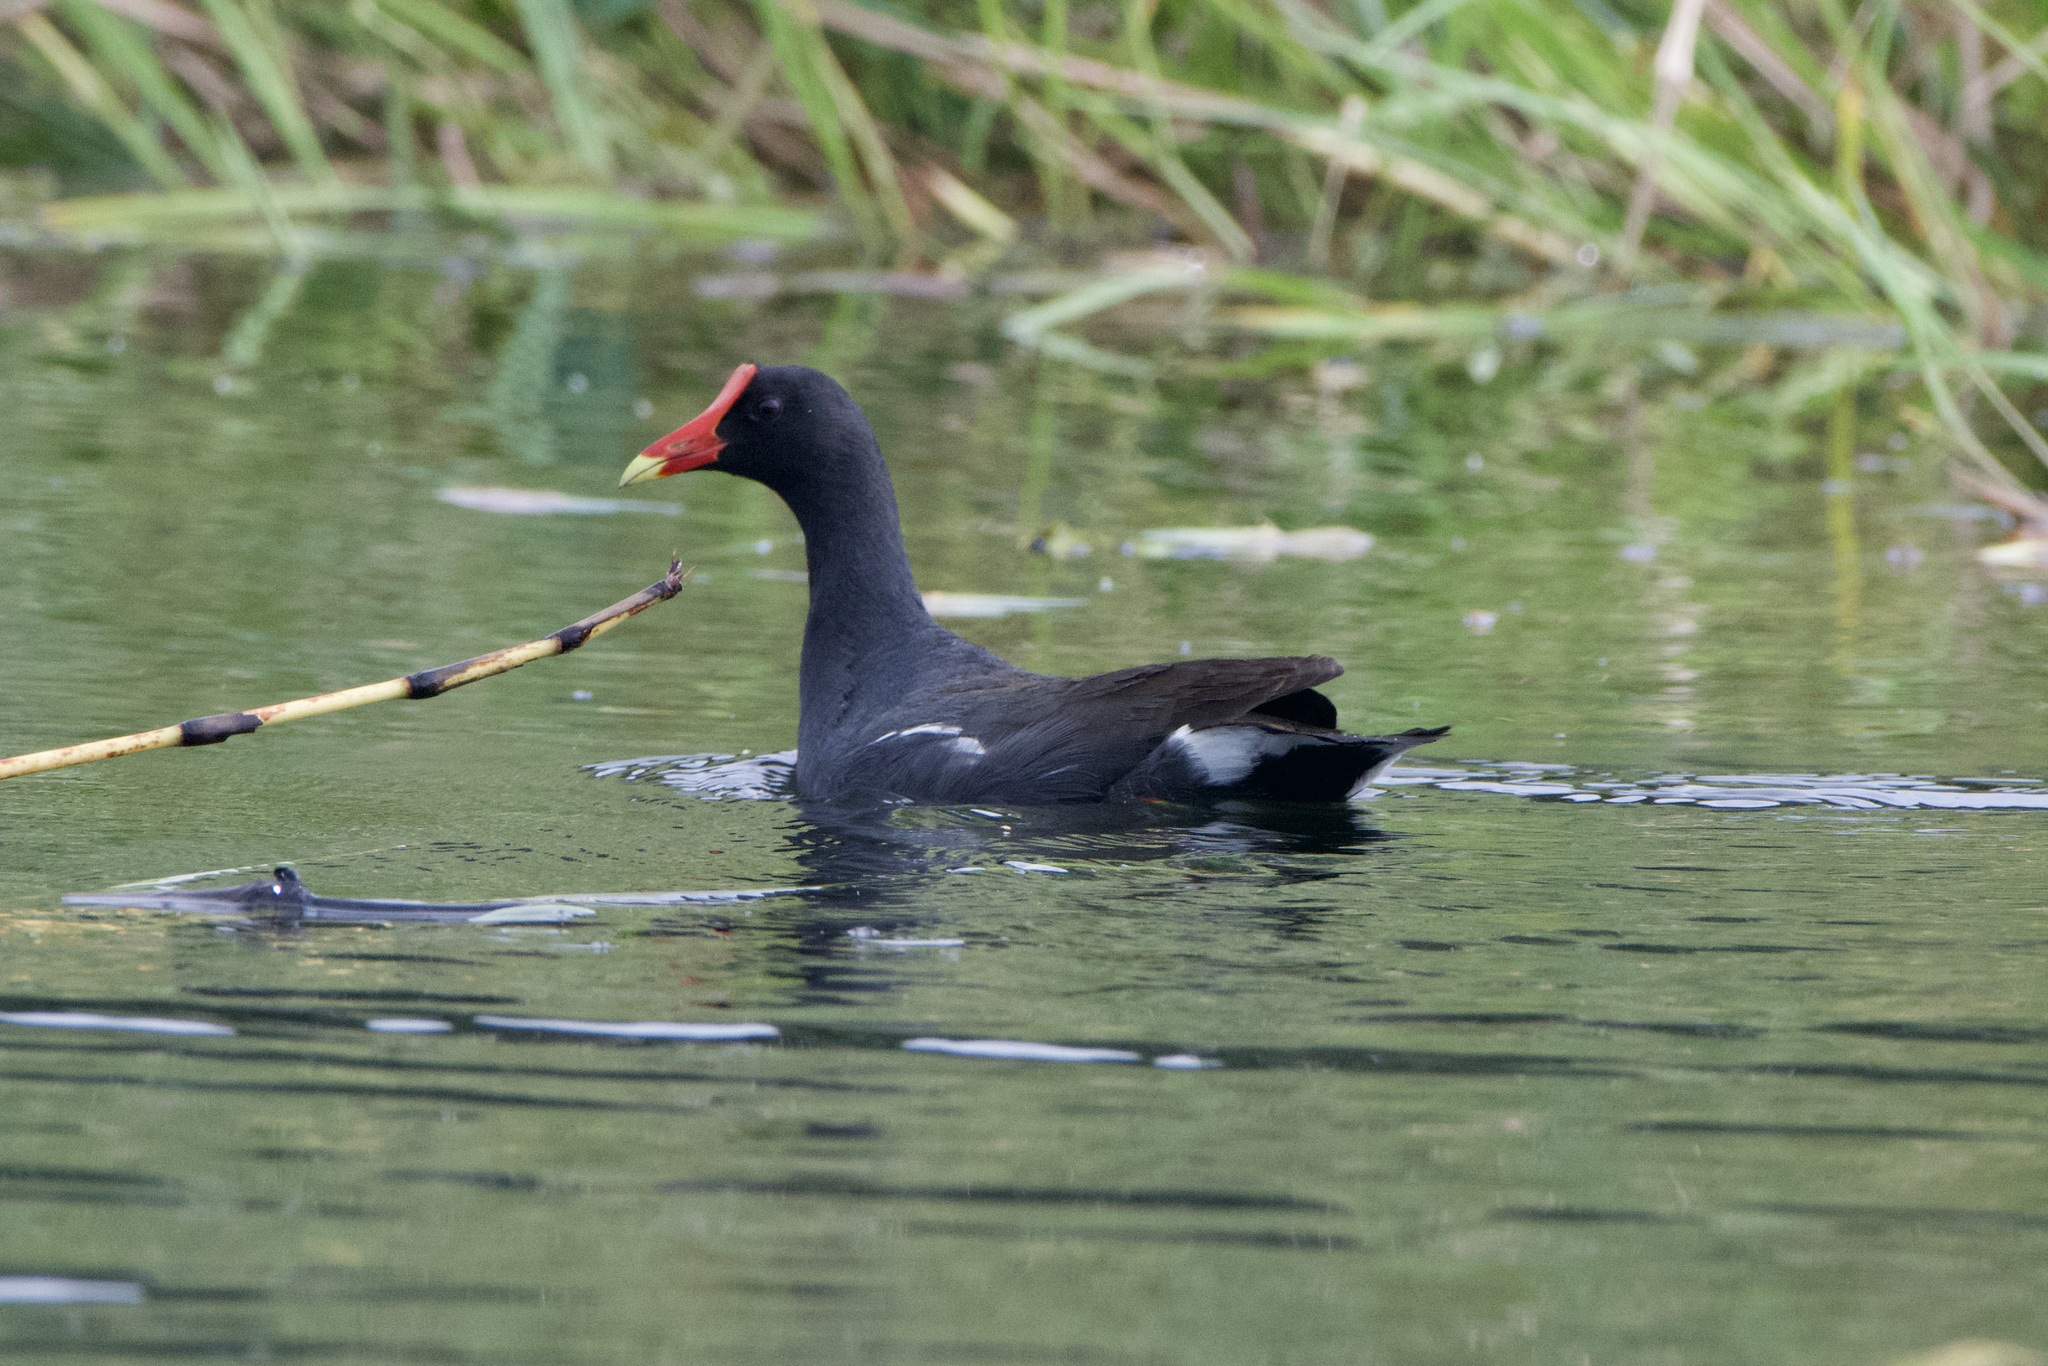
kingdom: Animalia
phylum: Chordata
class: Aves
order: Gruiformes
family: Rallidae
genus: Gallinula
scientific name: Gallinula chloropus
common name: Common moorhen
